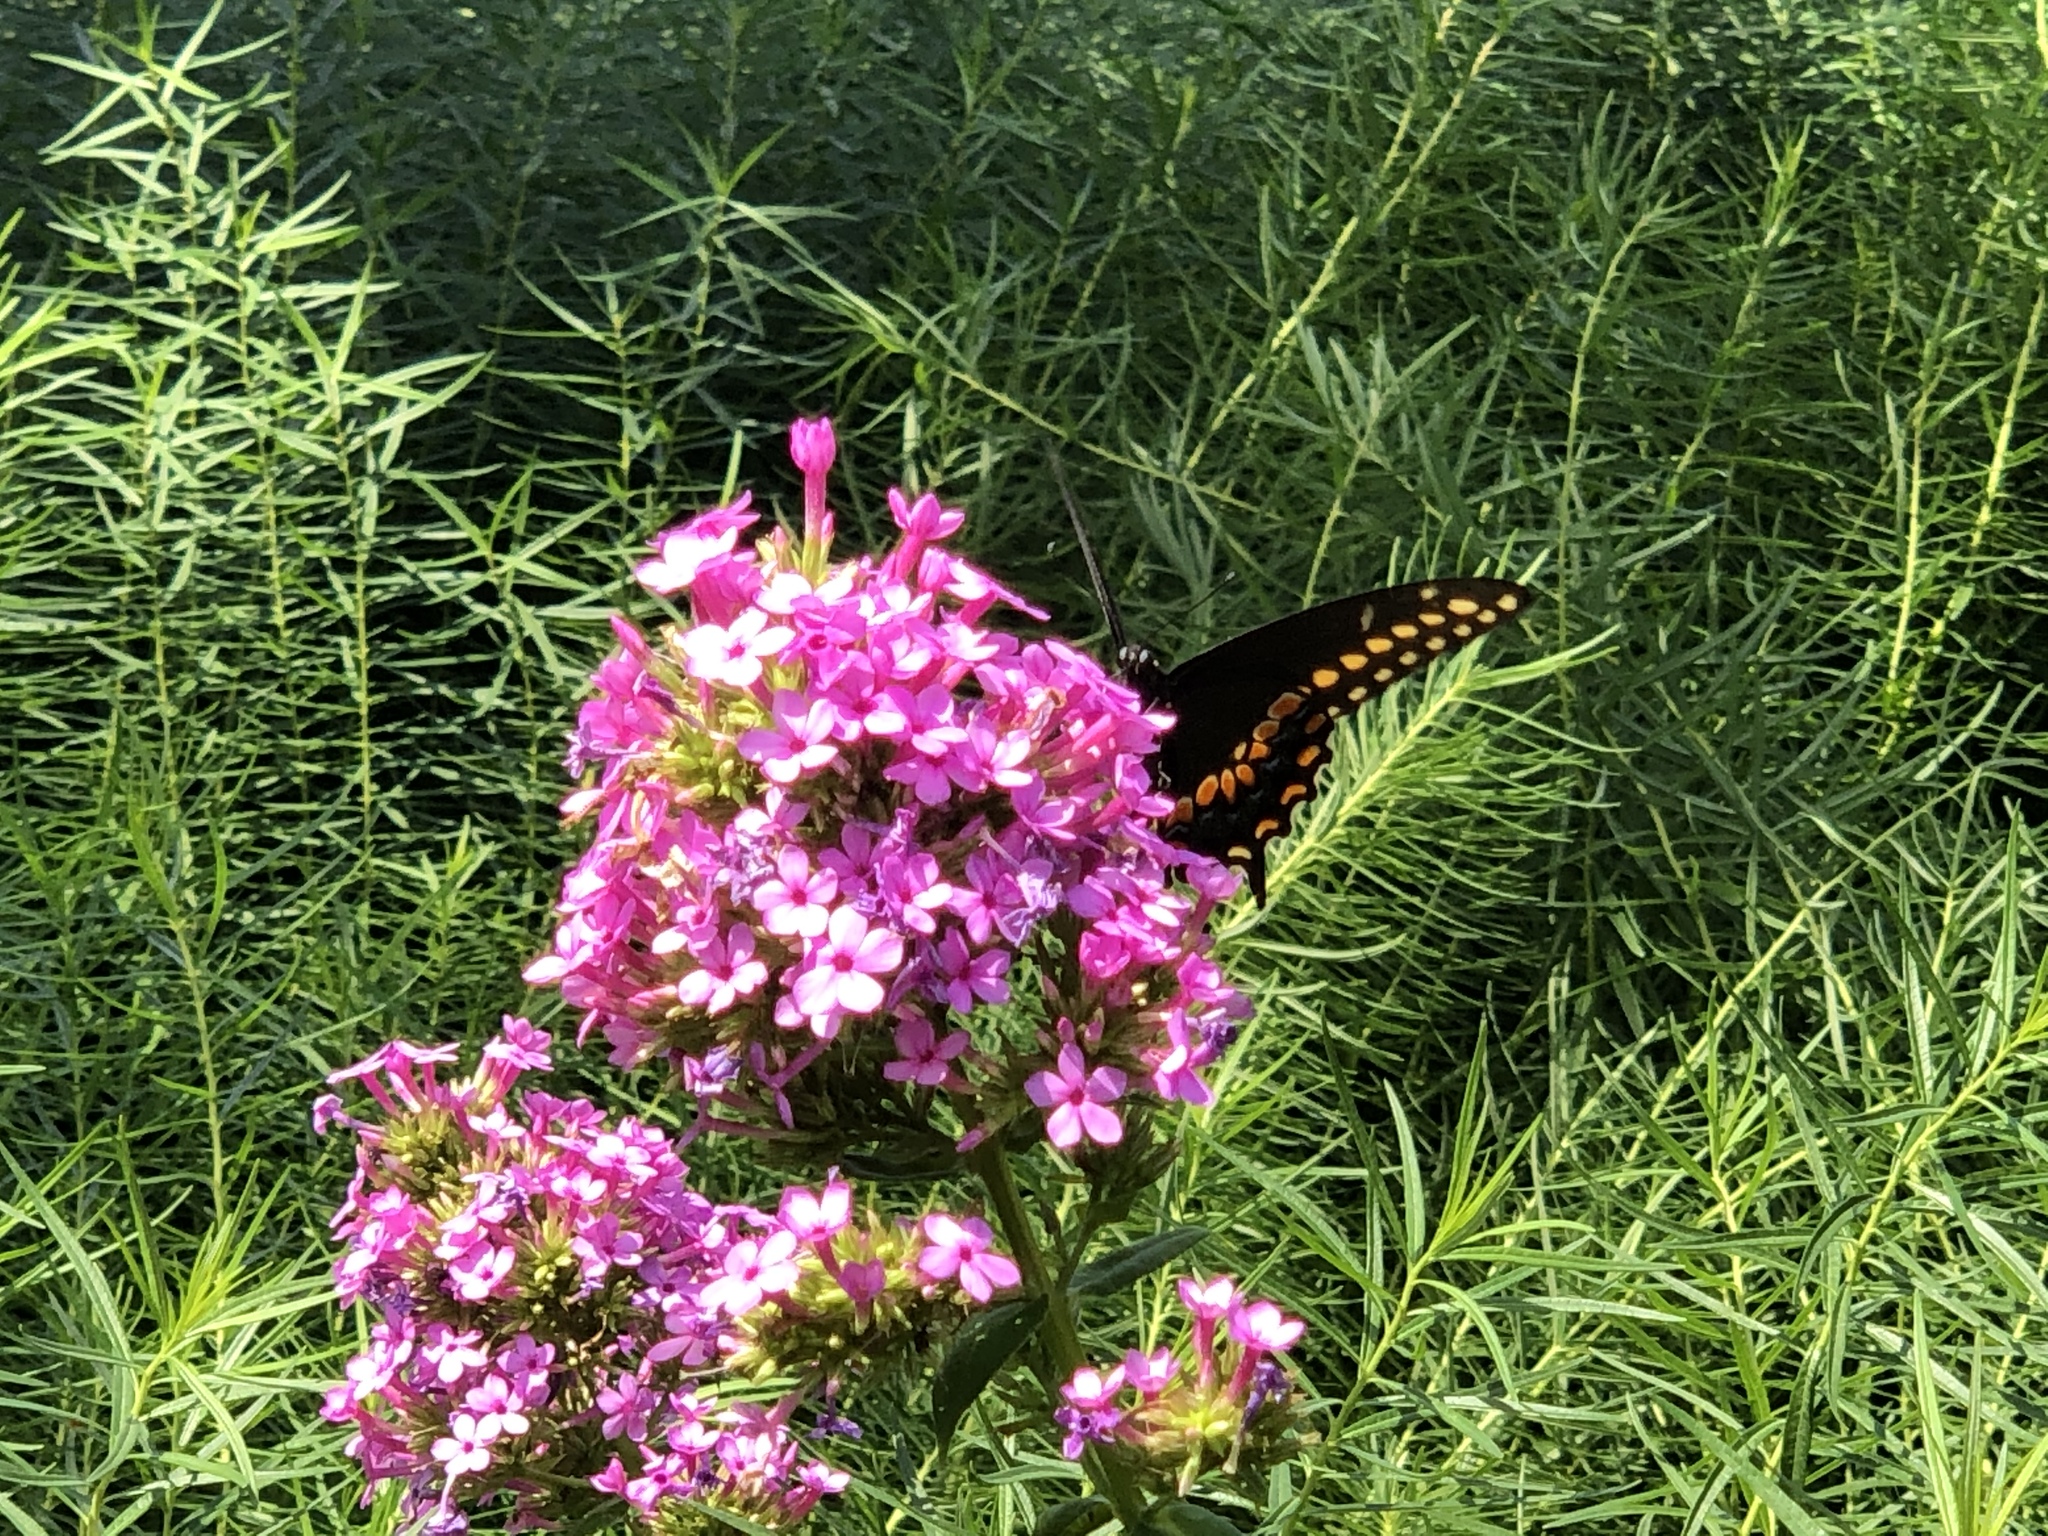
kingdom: Animalia
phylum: Arthropoda
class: Insecta
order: Lepidoptera
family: Papilionidae
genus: Papilio
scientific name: Papilio polyxenes
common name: Black swallowtail
